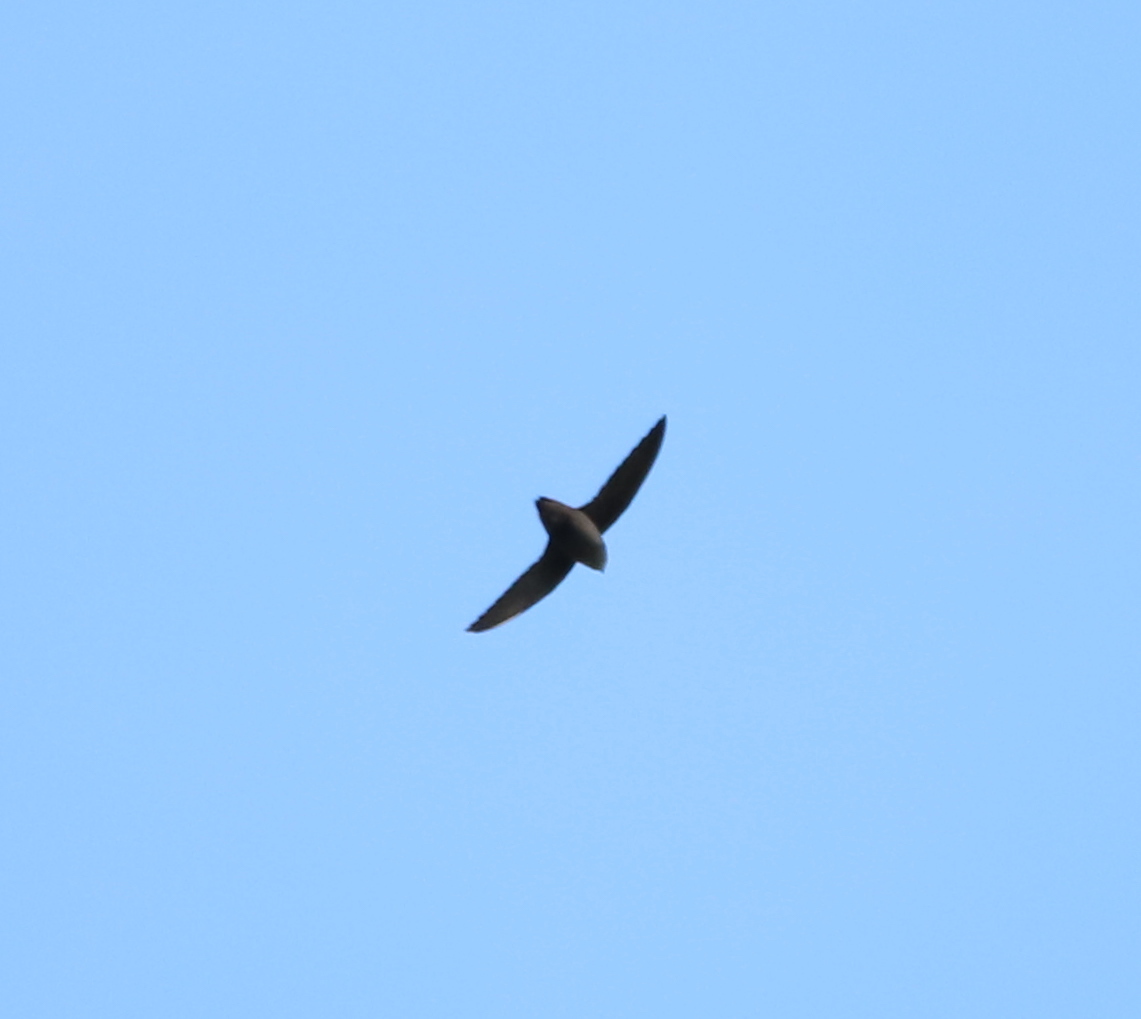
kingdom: Animalia
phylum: Chordata
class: Aves
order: Apodiformes
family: Apodidae
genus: Chaetura
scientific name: Chaetura pelagica
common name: Chimney swift
